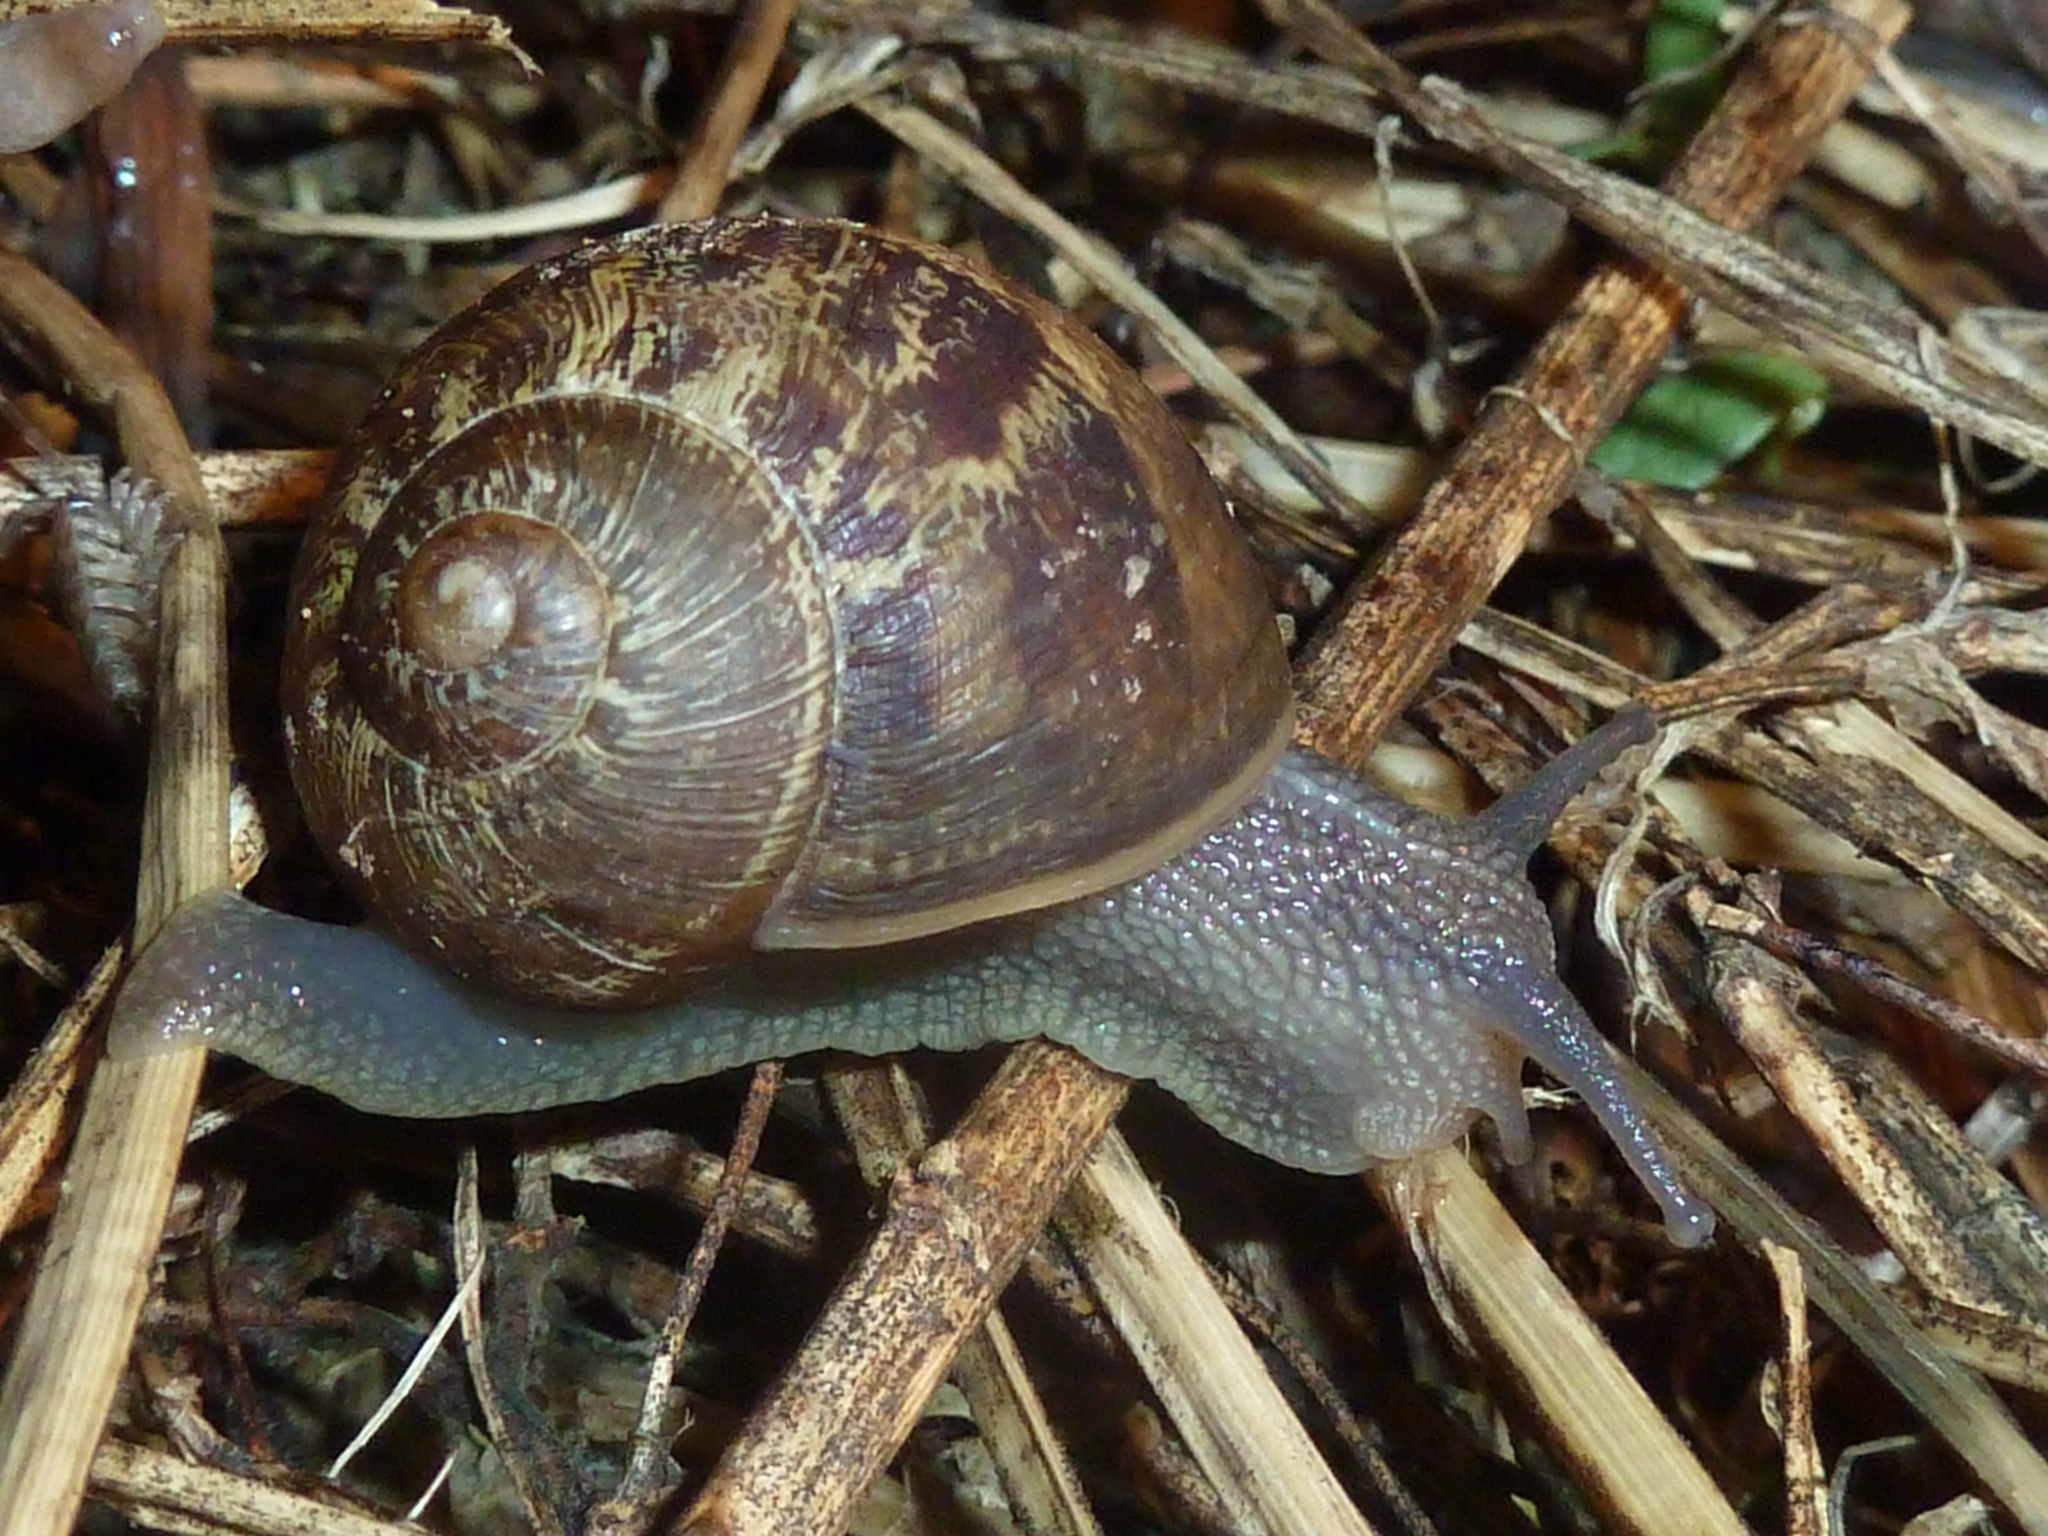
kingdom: Animalia
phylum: Mollusca
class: Gastropoda
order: Stylommatophora
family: Helicidae
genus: Cornu
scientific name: Cornu aspersum
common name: Brown garden snail
